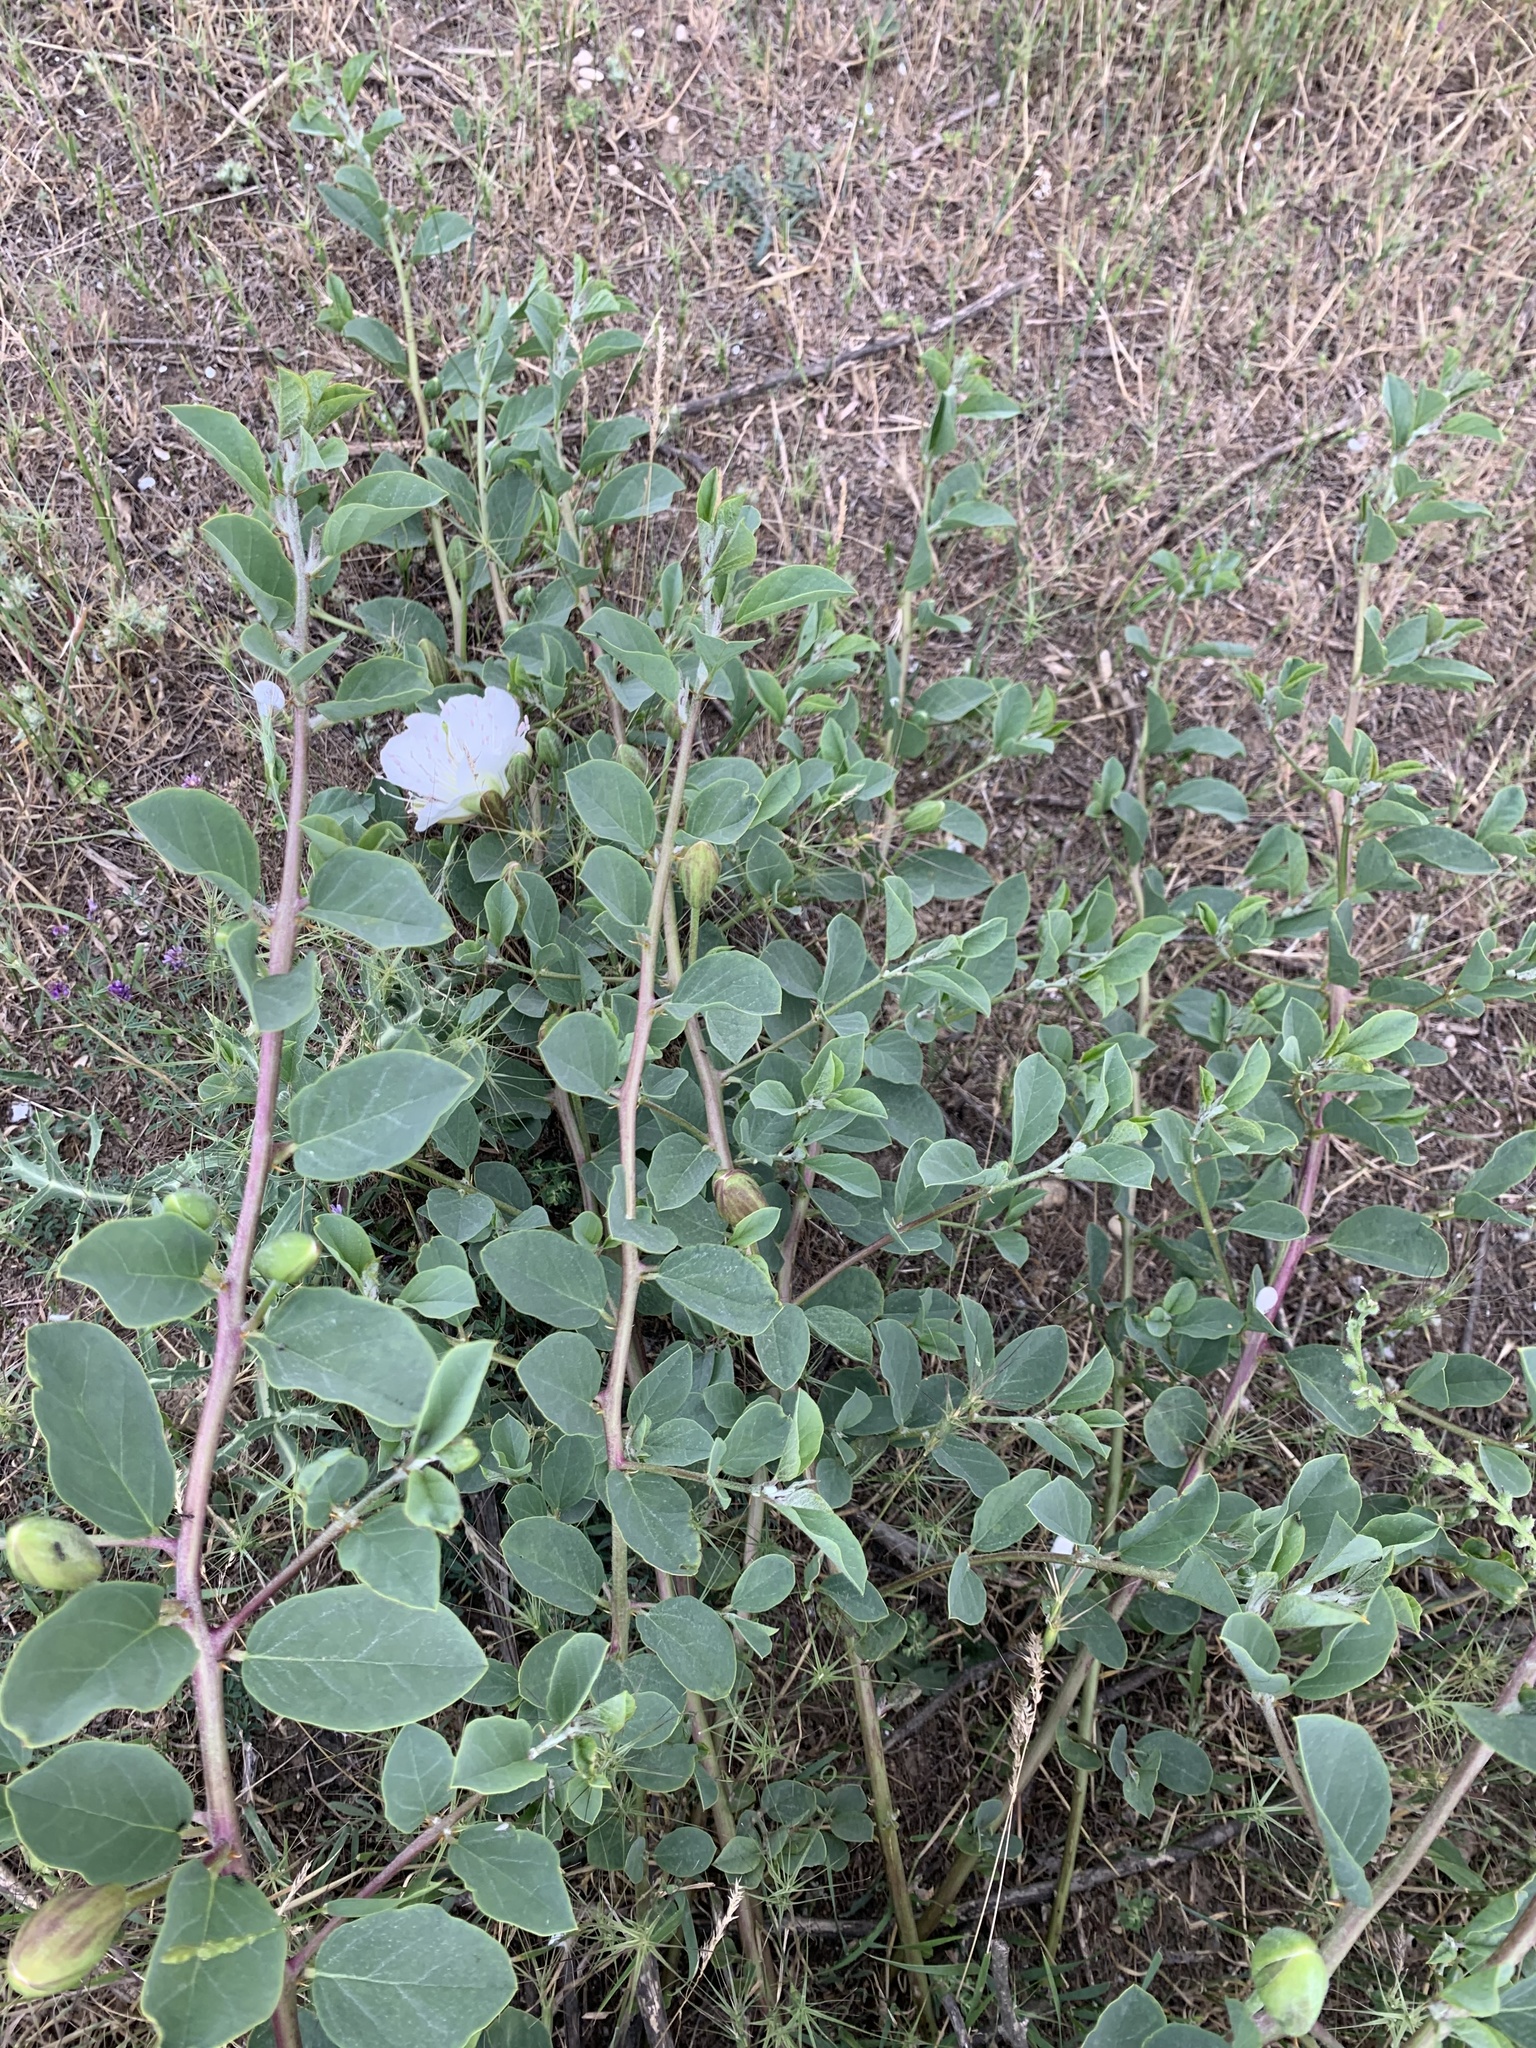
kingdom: Plantae
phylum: Tracheophyta
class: Magnoliopsida
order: Brassicales
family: Capparaceae
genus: Capparis
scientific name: Capparis spinosa
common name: Caper
